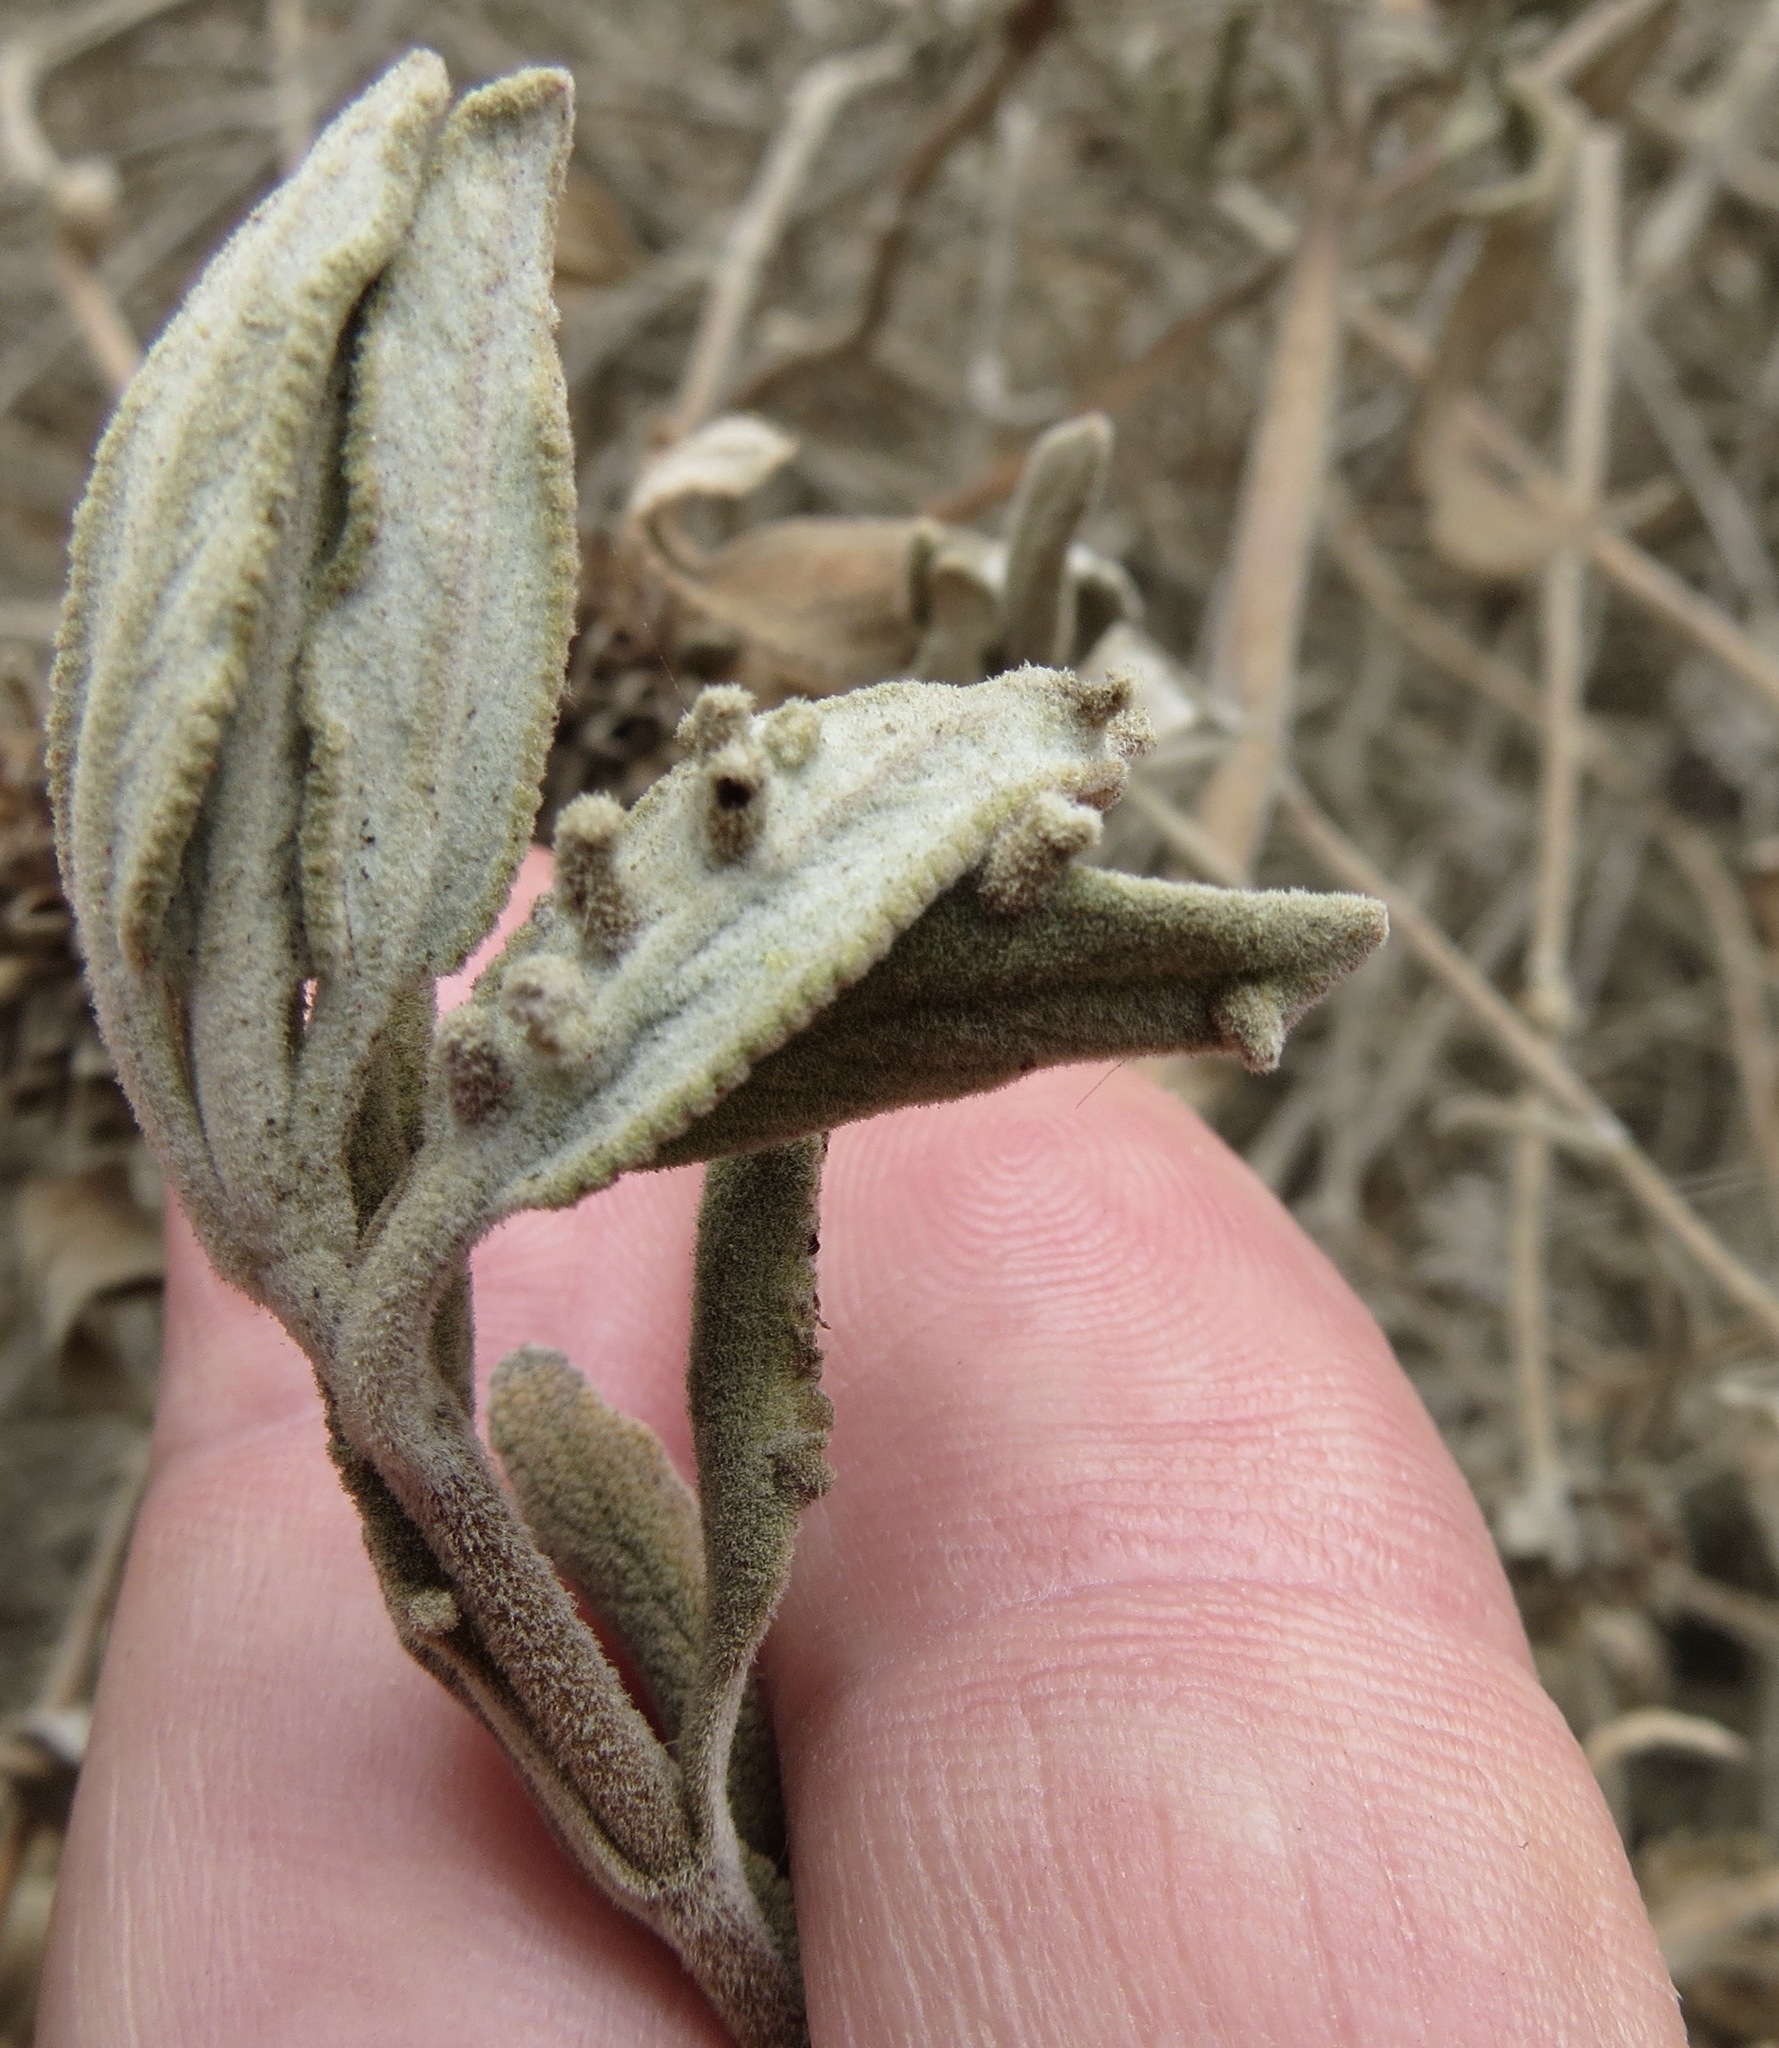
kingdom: Animalia
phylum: Arthropoda
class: Insecta
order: Diptera
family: Cecidomyiidae
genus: Rhopalomyia
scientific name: Rhopalomyia salviae
